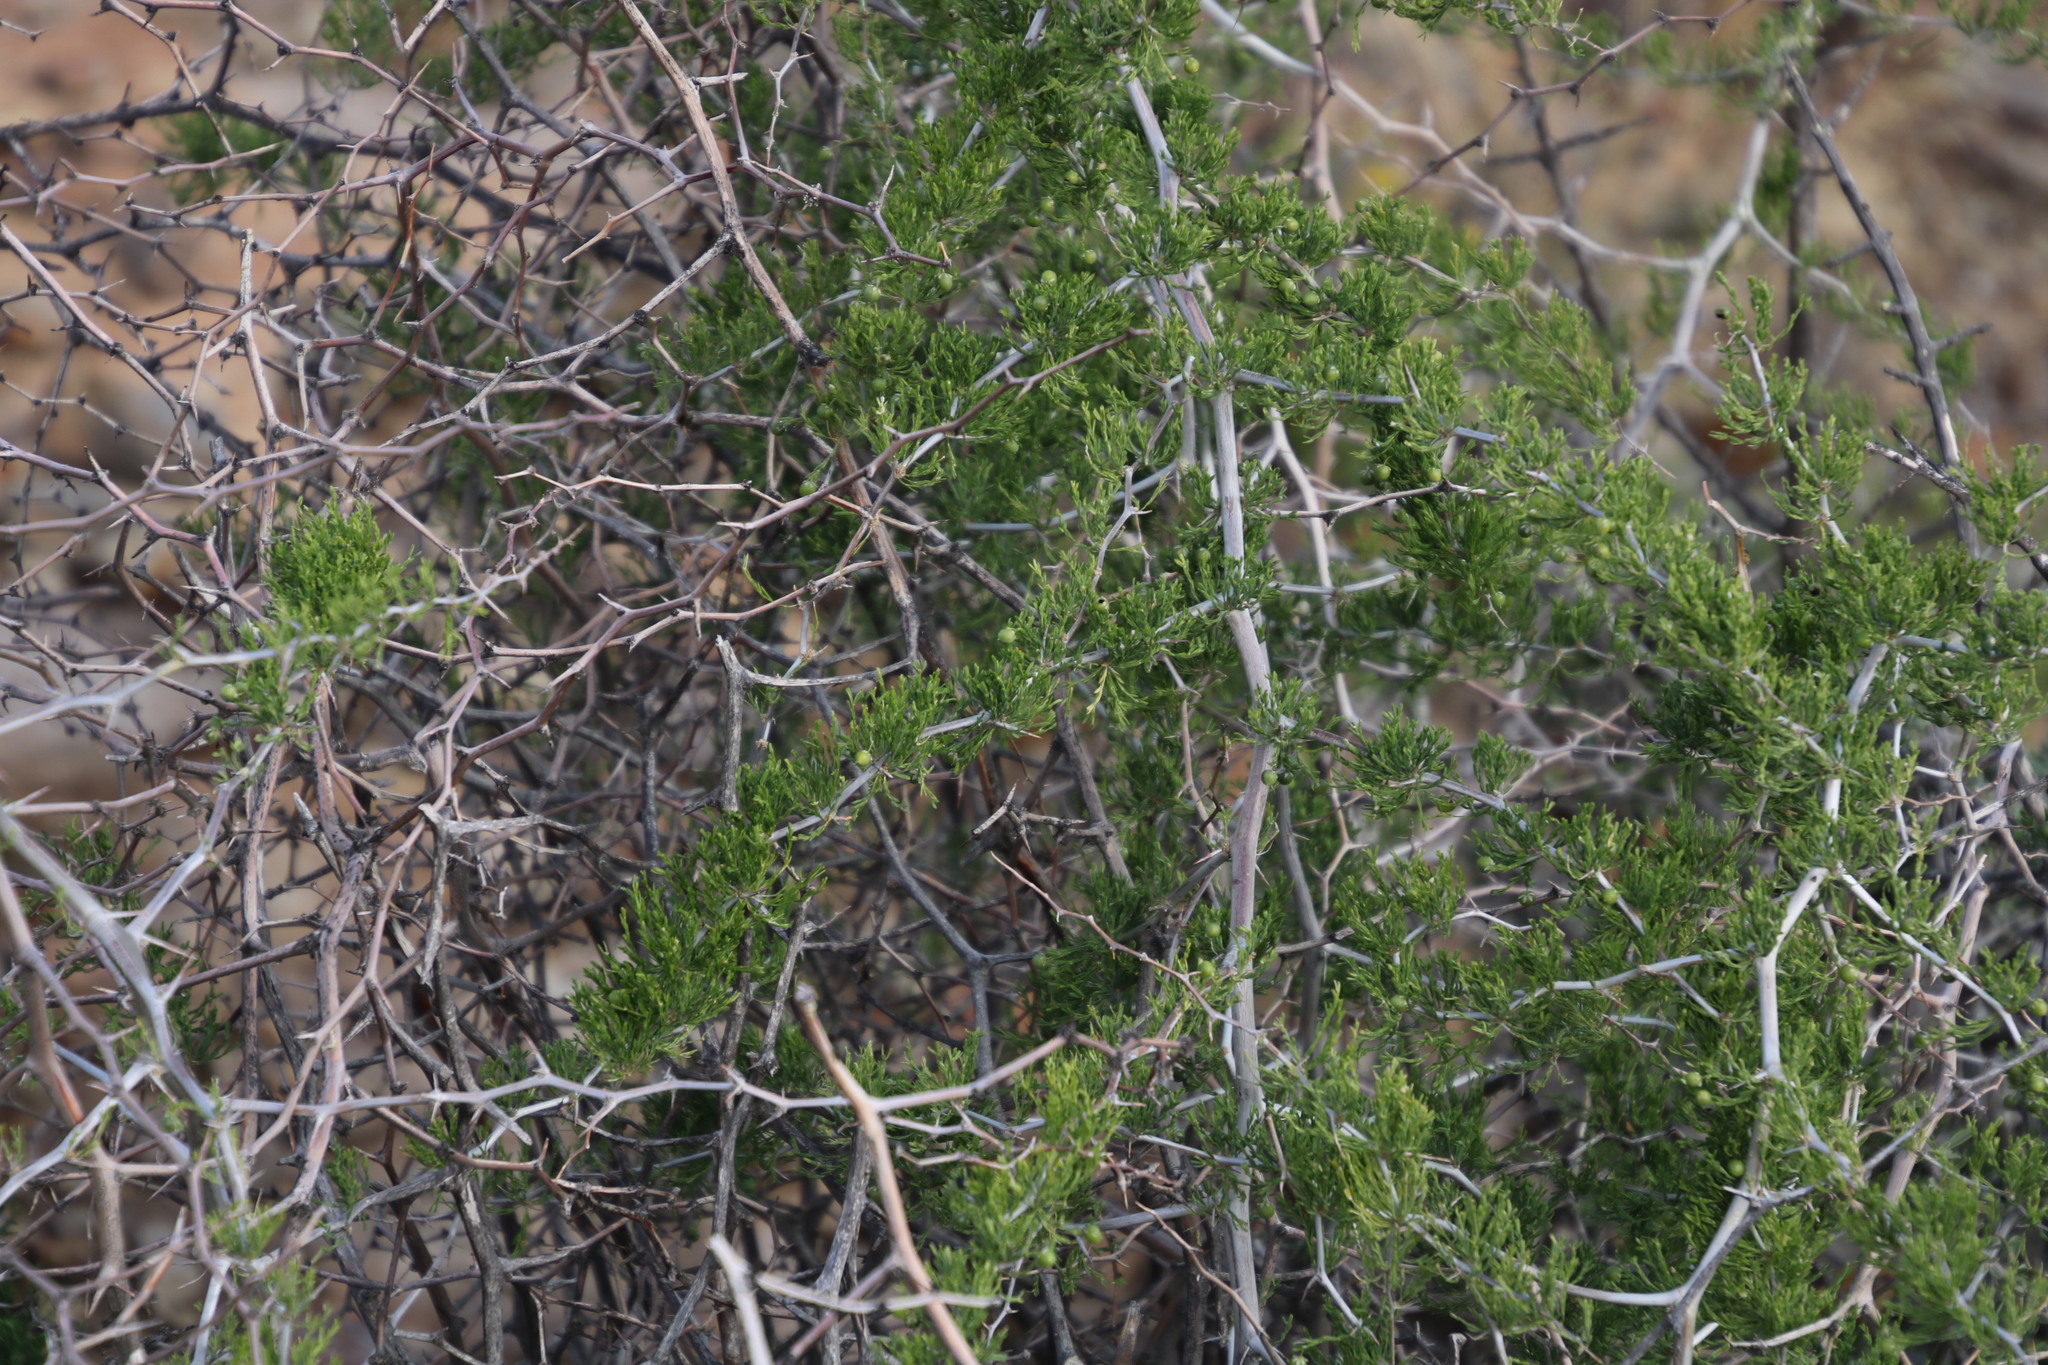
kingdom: Plantae
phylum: Tracheophyta
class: Liliopsida
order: Asparagales
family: Asparagaceae
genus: Asparagus
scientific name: Asparagus burchellii
